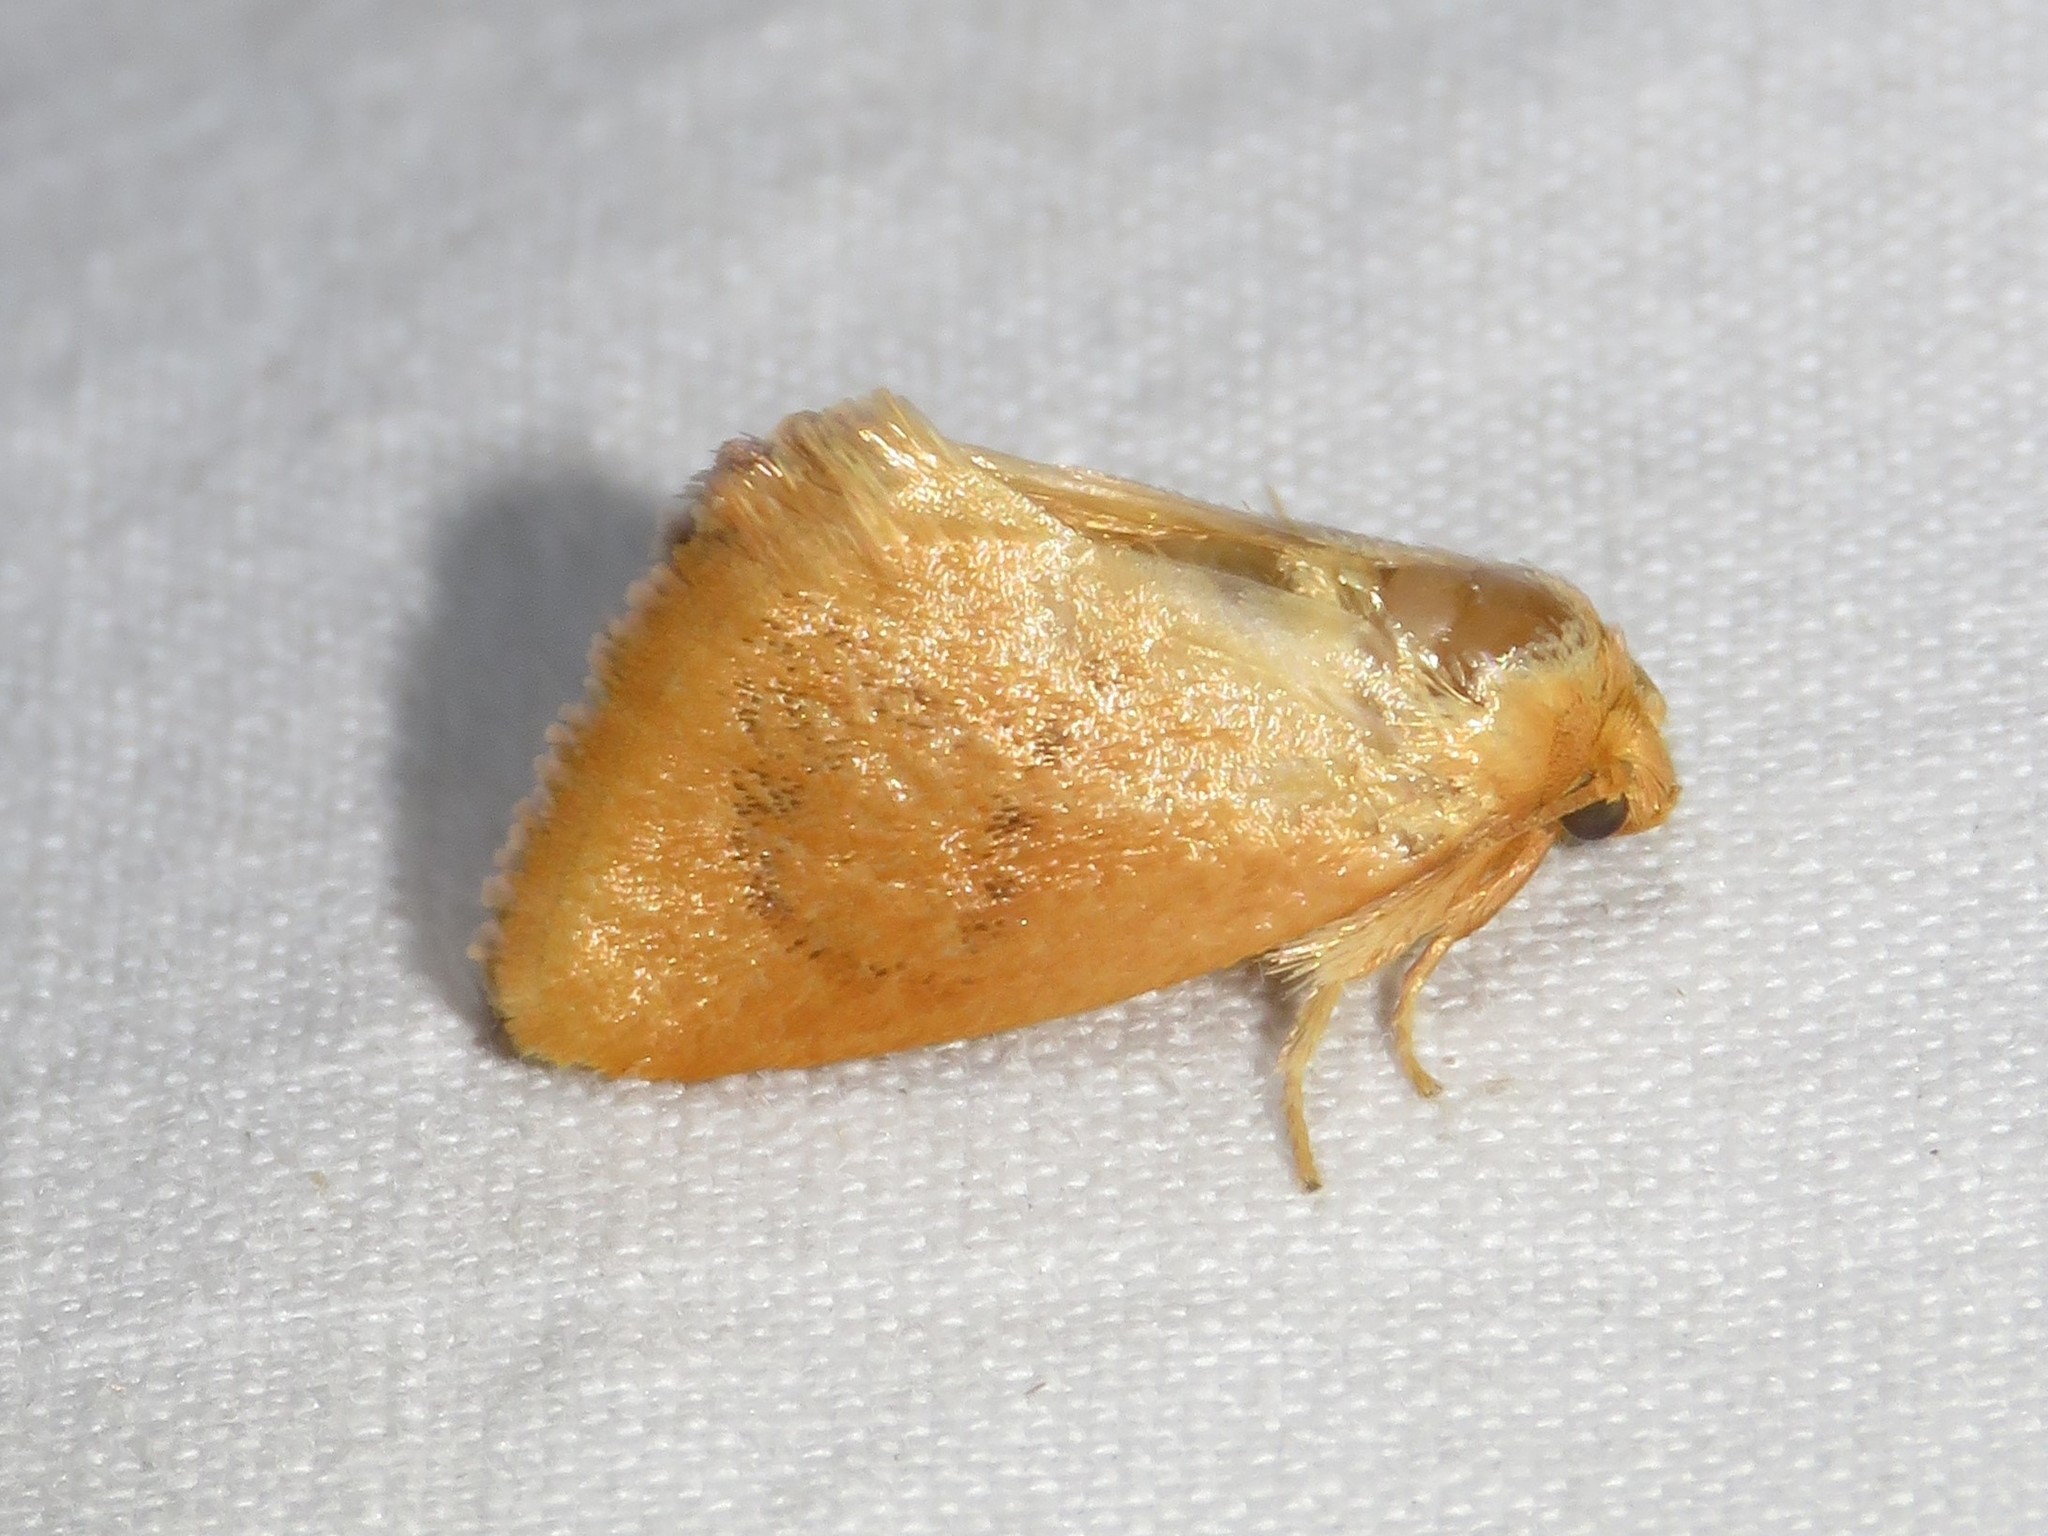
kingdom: Animalia
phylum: Arthropoda
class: Insecta
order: Lepidoptera
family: Limacodidae
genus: Tortricidia
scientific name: Tortricidia flexuosa
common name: Abbreviated button slug moth
